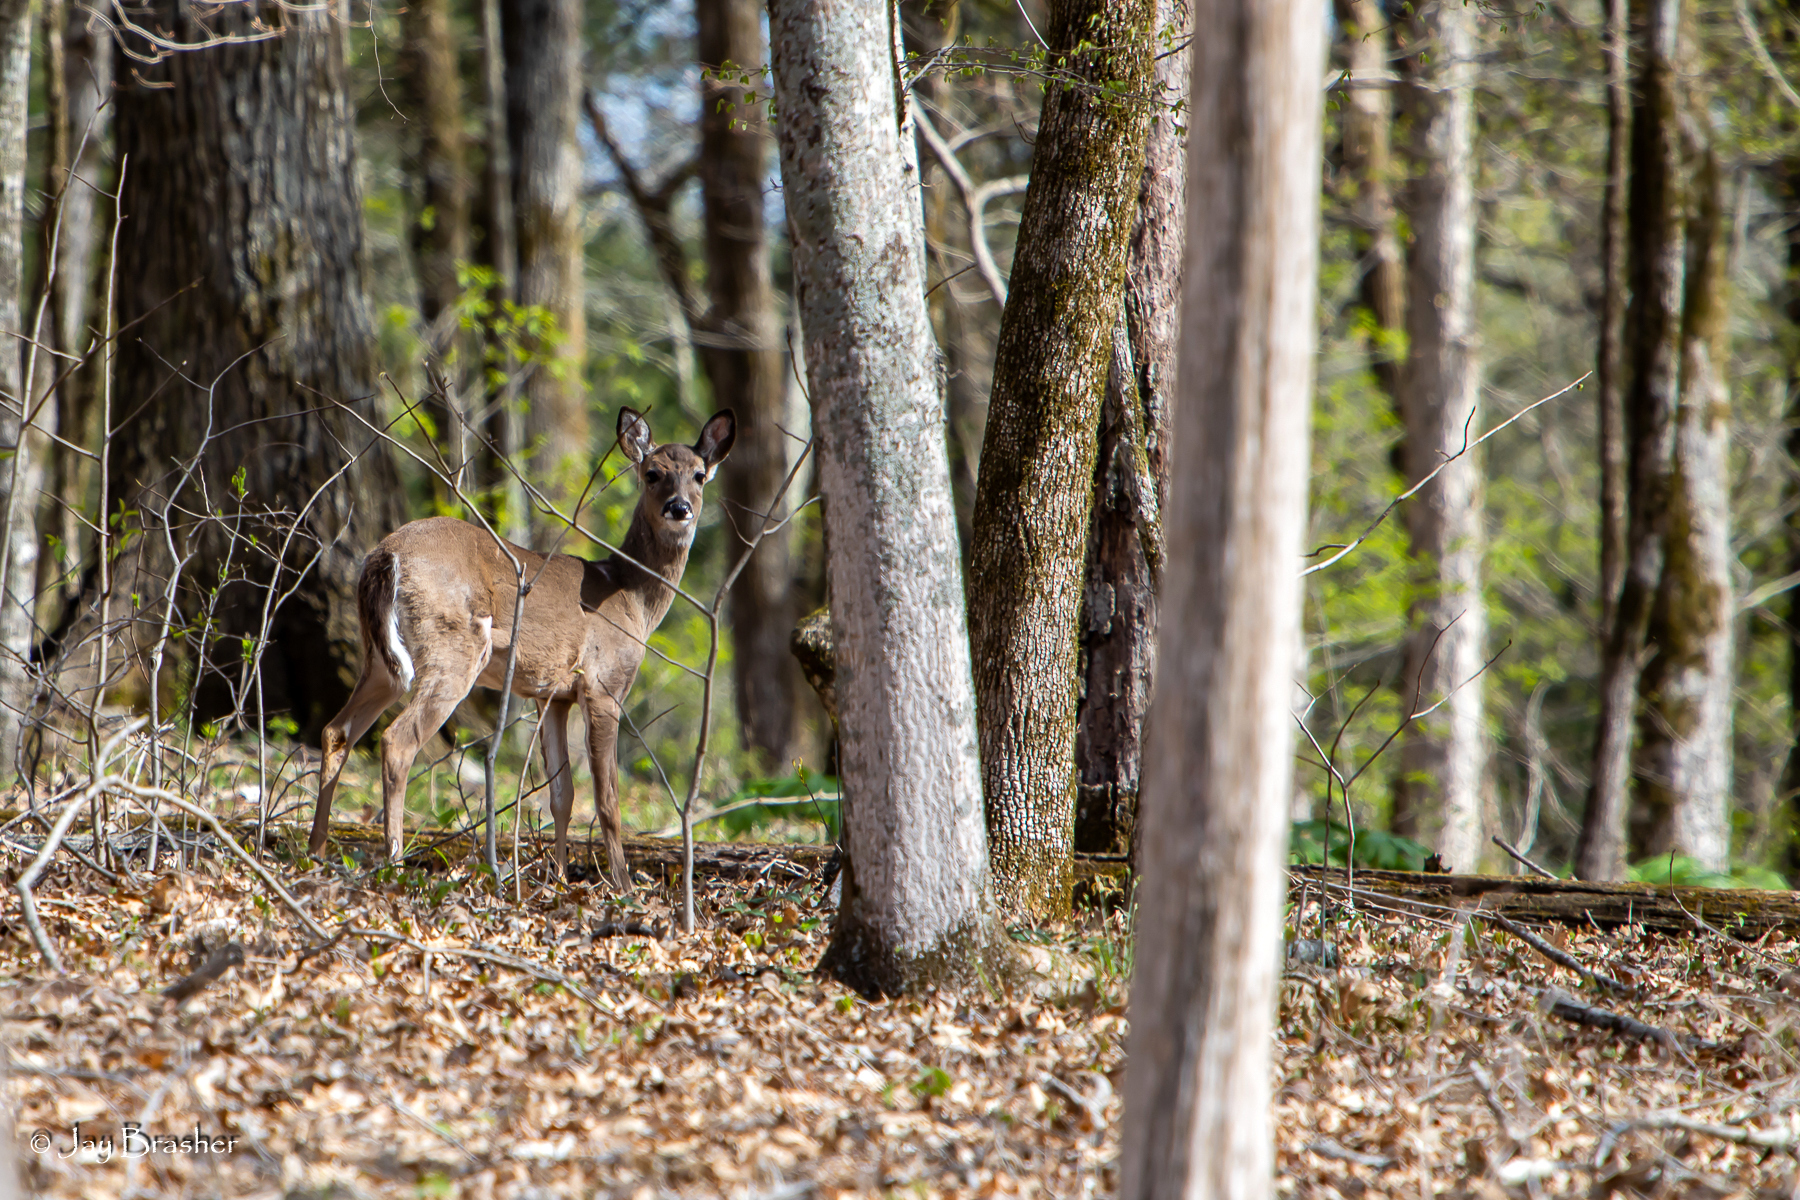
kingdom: Animalia
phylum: Chordata
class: Mammalia
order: Artiodactyla
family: Cervidae
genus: Odocoileus
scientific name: Odocoileus virginianus
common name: White-tailed deer
